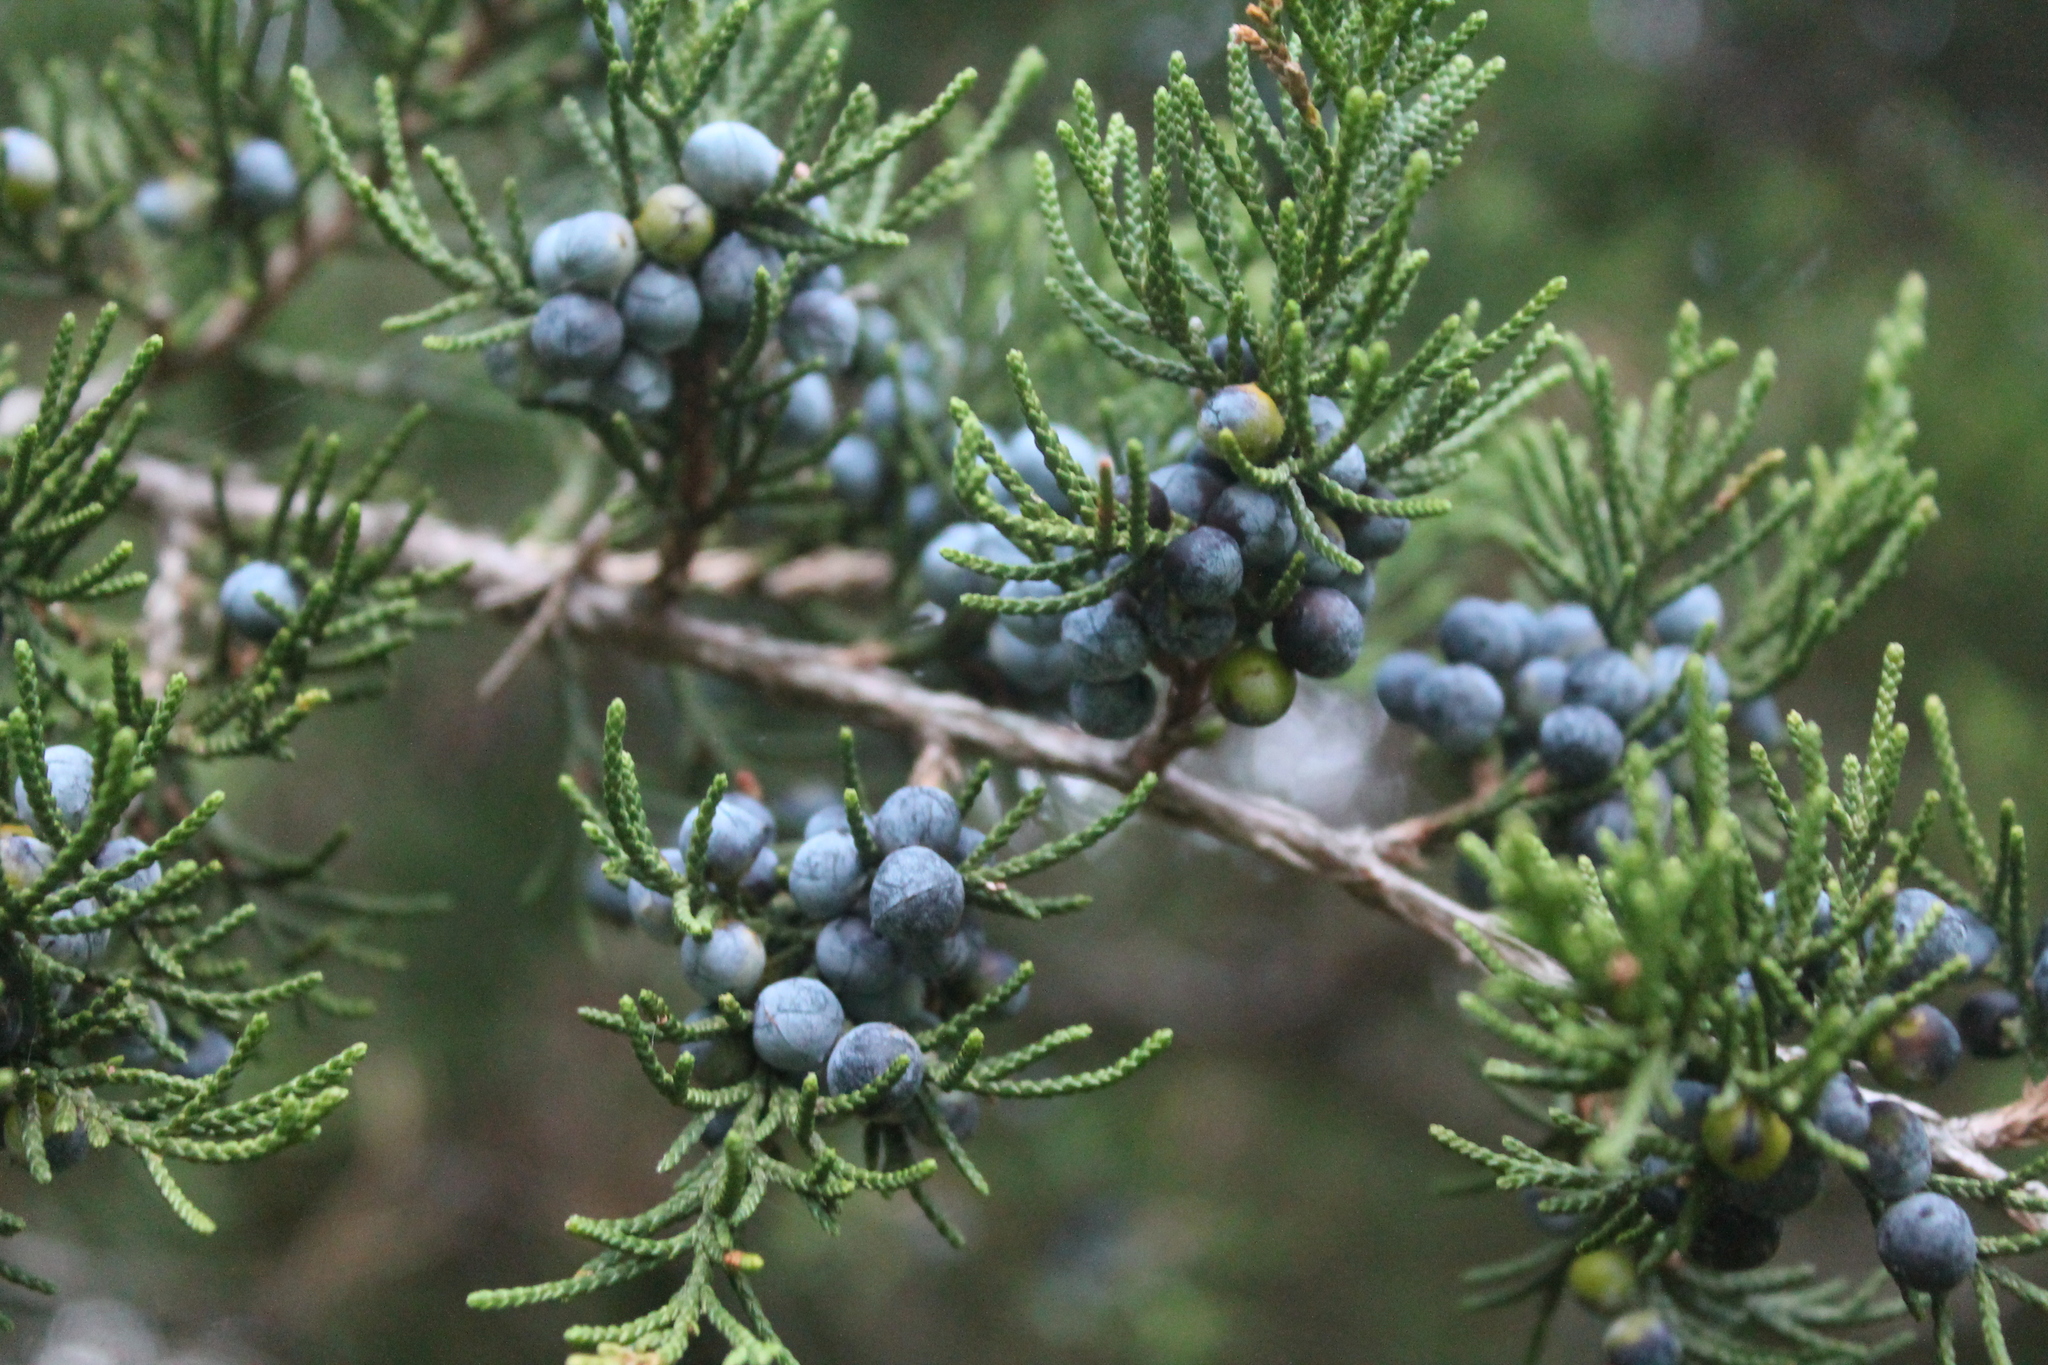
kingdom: Plantae
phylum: Tracheophyta
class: Pinopsida
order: Pinales
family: Cupressaceae
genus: Juniperus
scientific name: Juniperus virginiana
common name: Red juniper
